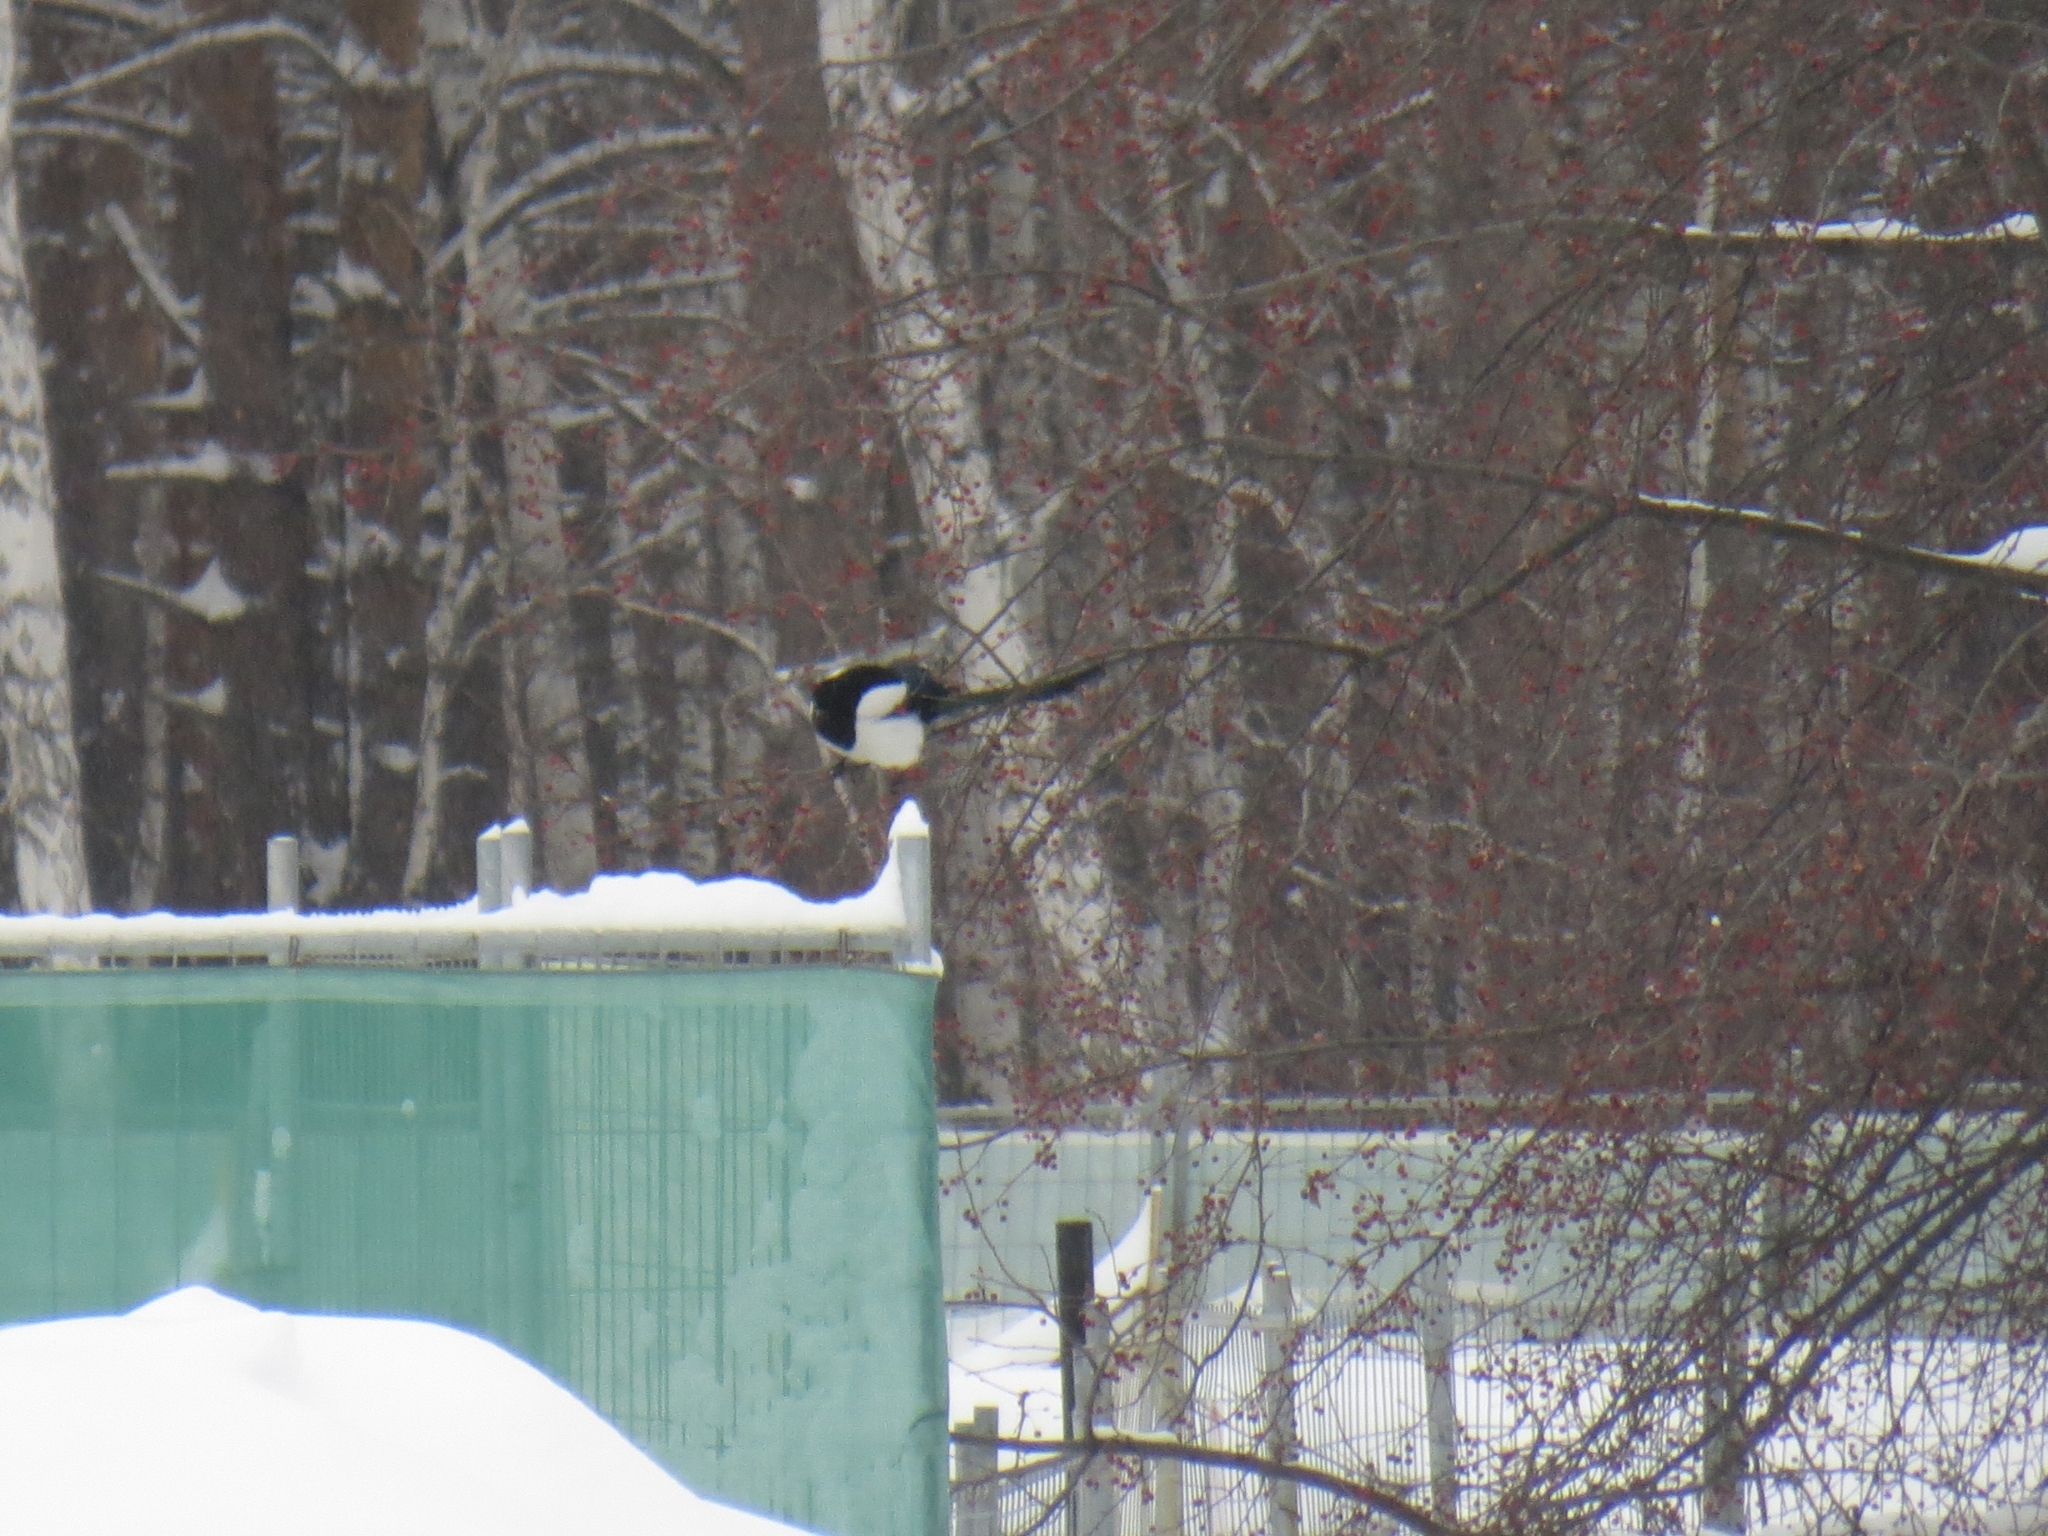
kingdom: Animalia
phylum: Chordata
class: Aves
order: Passeriformes
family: Corvidae
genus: Pica
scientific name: Pica pica
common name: Eurasian magpie
